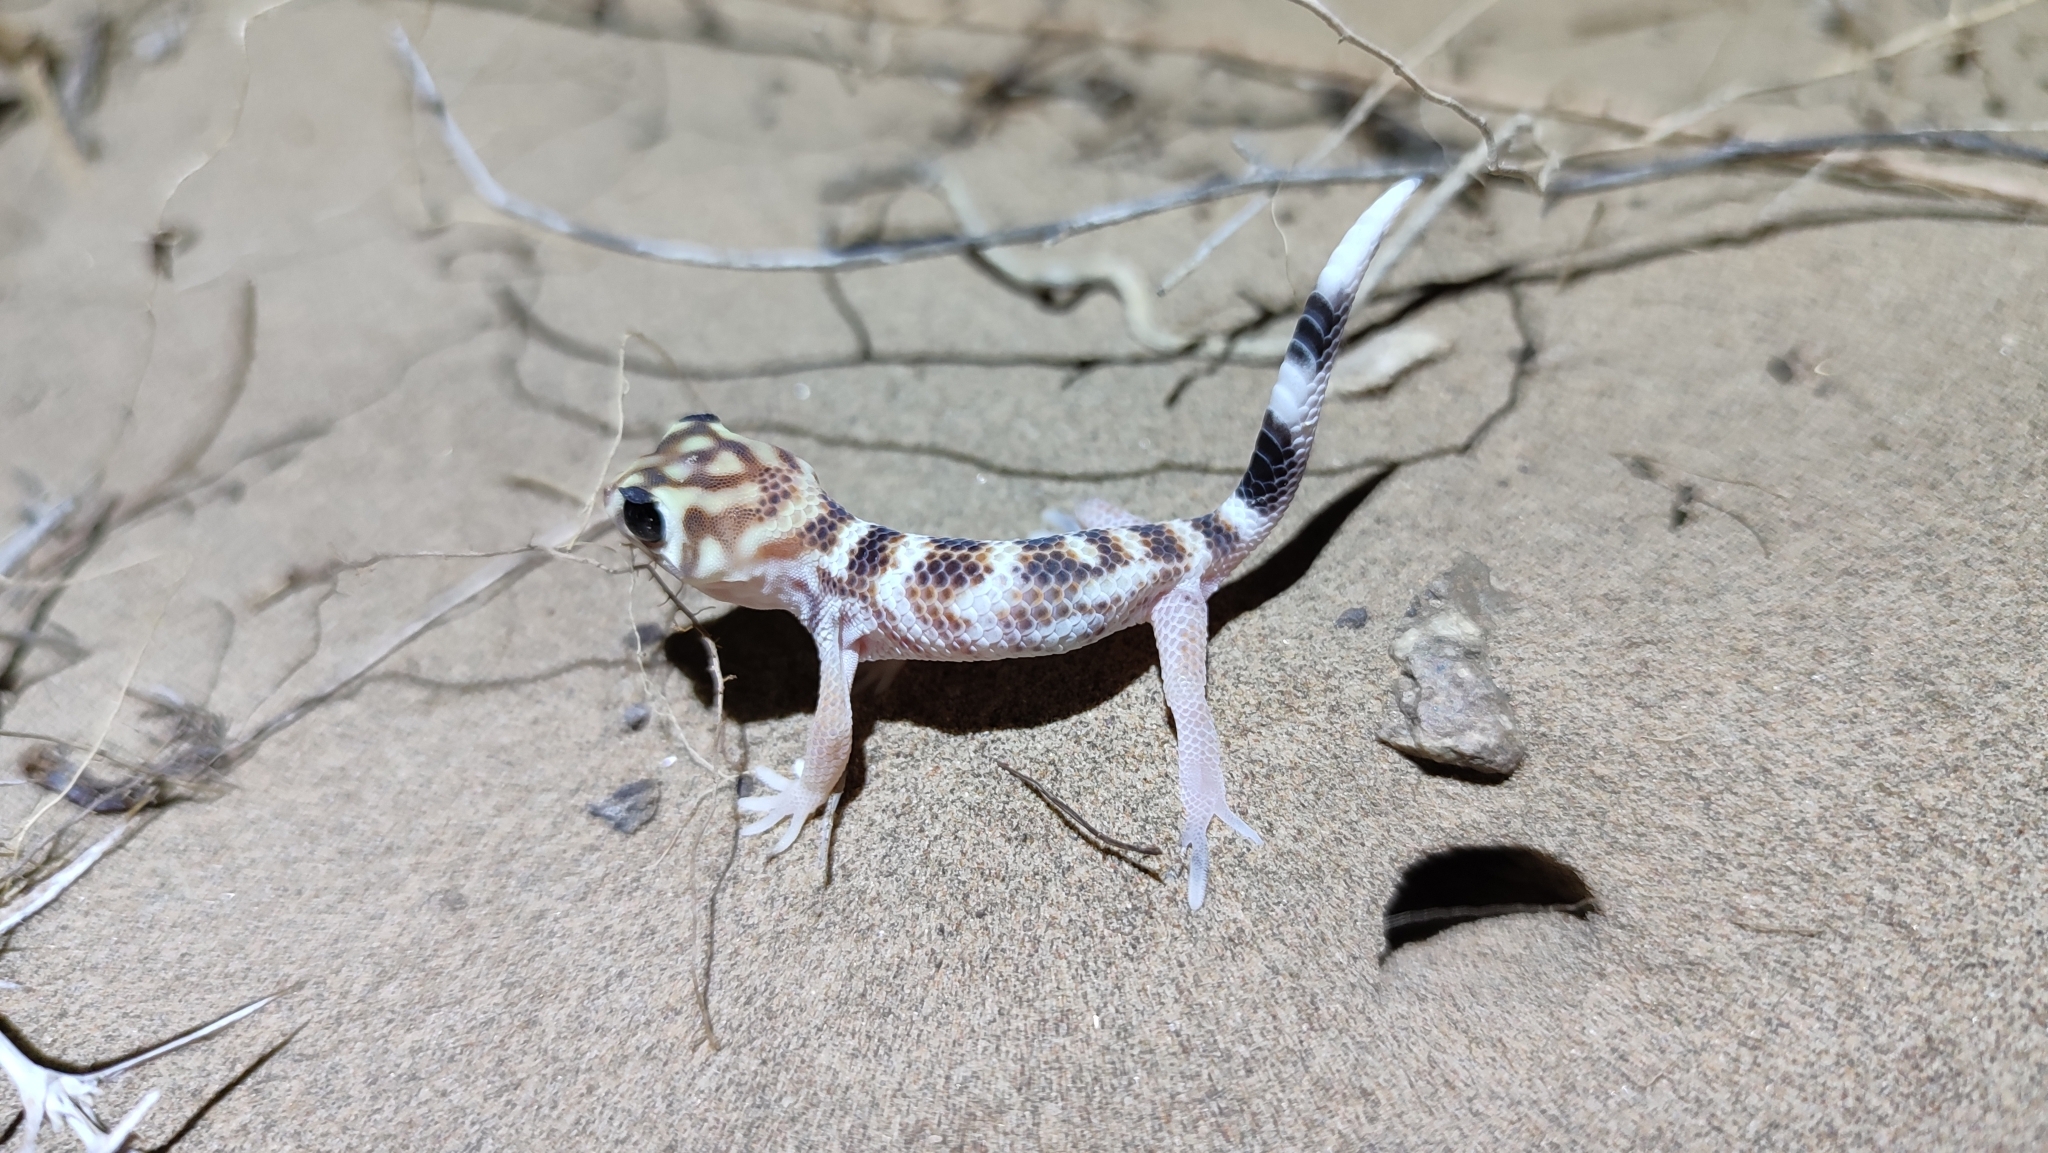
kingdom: Animalia
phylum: Chordata
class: Squamata
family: Sphaerodactylidae
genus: Teratoscincus
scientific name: Teratoscincus scincus
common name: Common wonder gecko
